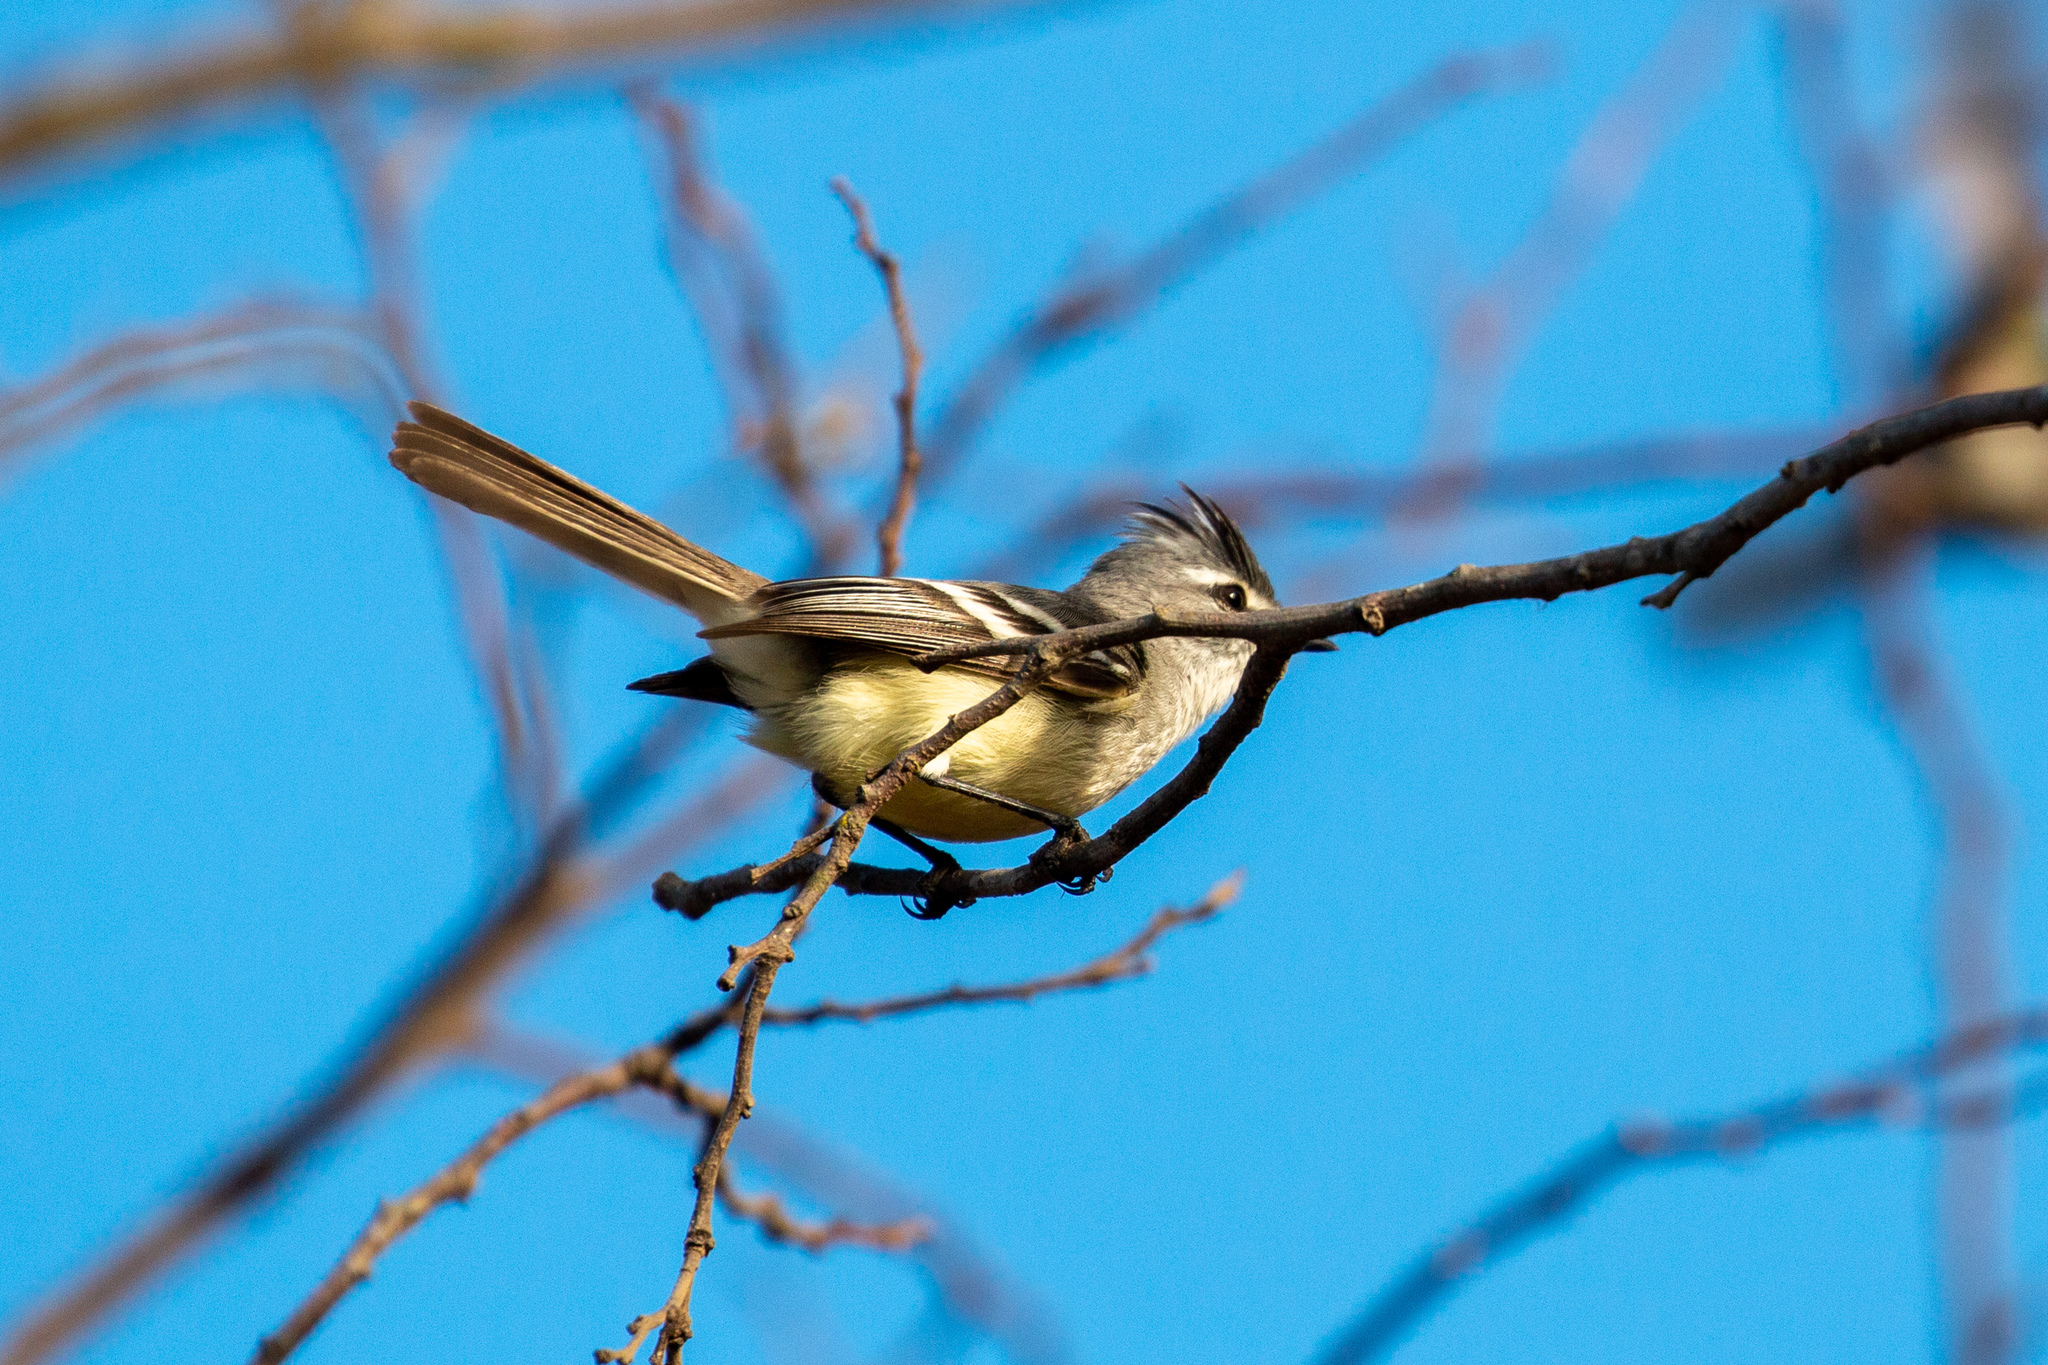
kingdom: Animalia
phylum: Chordata
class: Aves
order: Passeriformes
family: Tyrannidae
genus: Serpophaga
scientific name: Serpophaga subcristata
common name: White-crested tyrannulet
